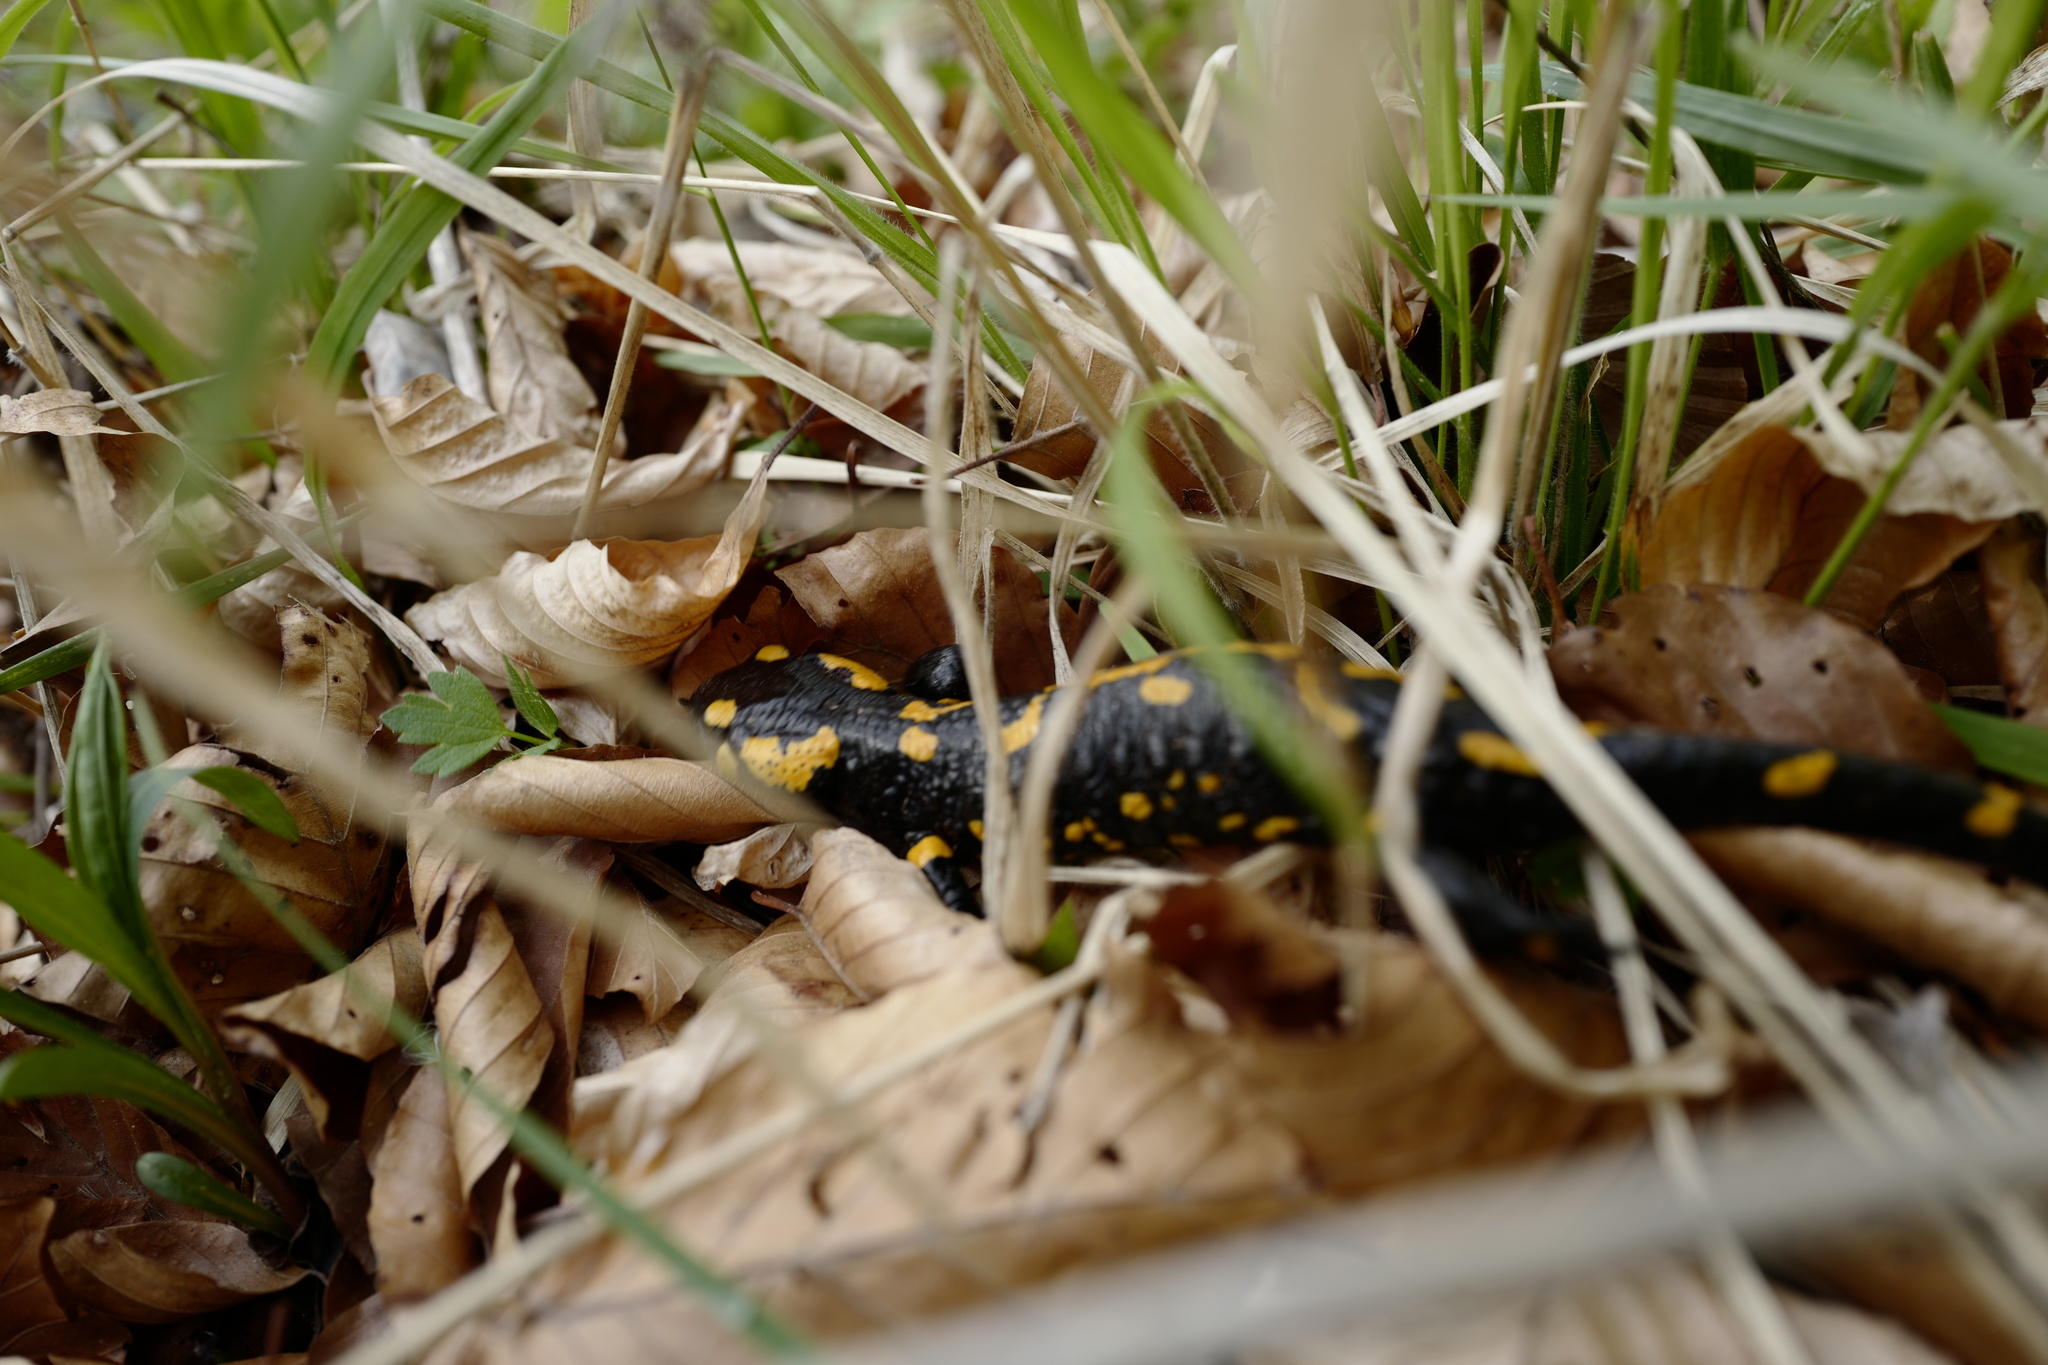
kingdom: Animalia
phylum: Chordata
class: Amphibia
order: Caudata
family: Salamandridae
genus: Salamandra
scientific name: Salamandra salamandra
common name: Fire salamander
